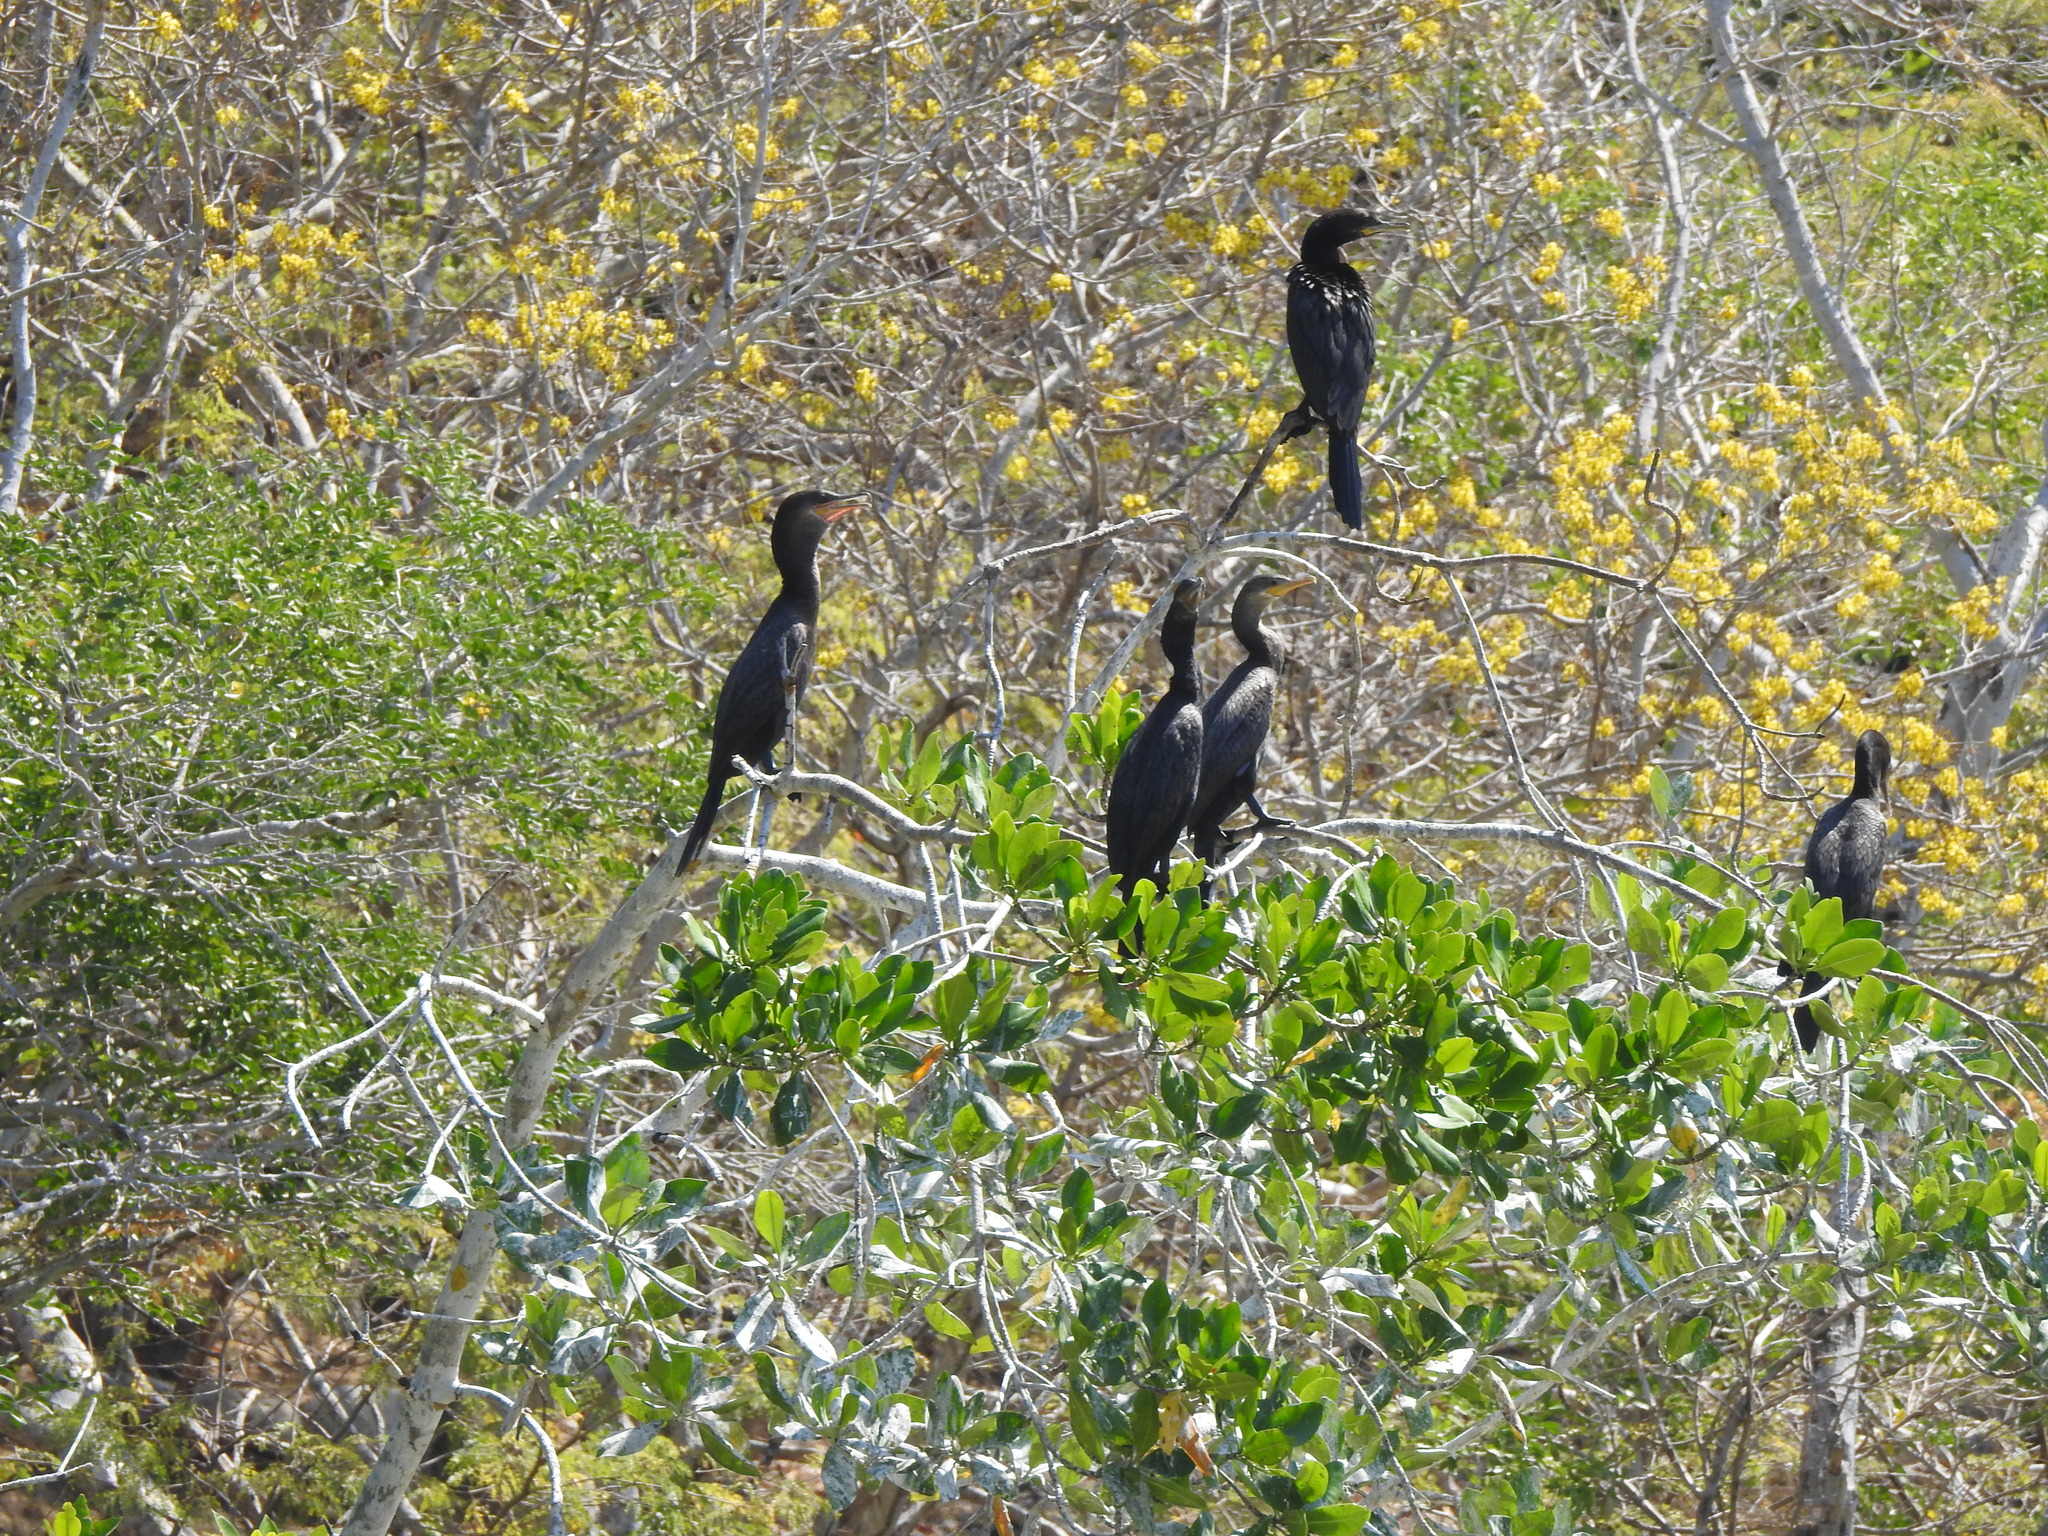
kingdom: Animalia
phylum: Chordata
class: Aves
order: Suliformes
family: Phalacrocoracidae
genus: Phalacrocorax
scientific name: Phalacrocorax brasilianus
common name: Neotropic cormorant
